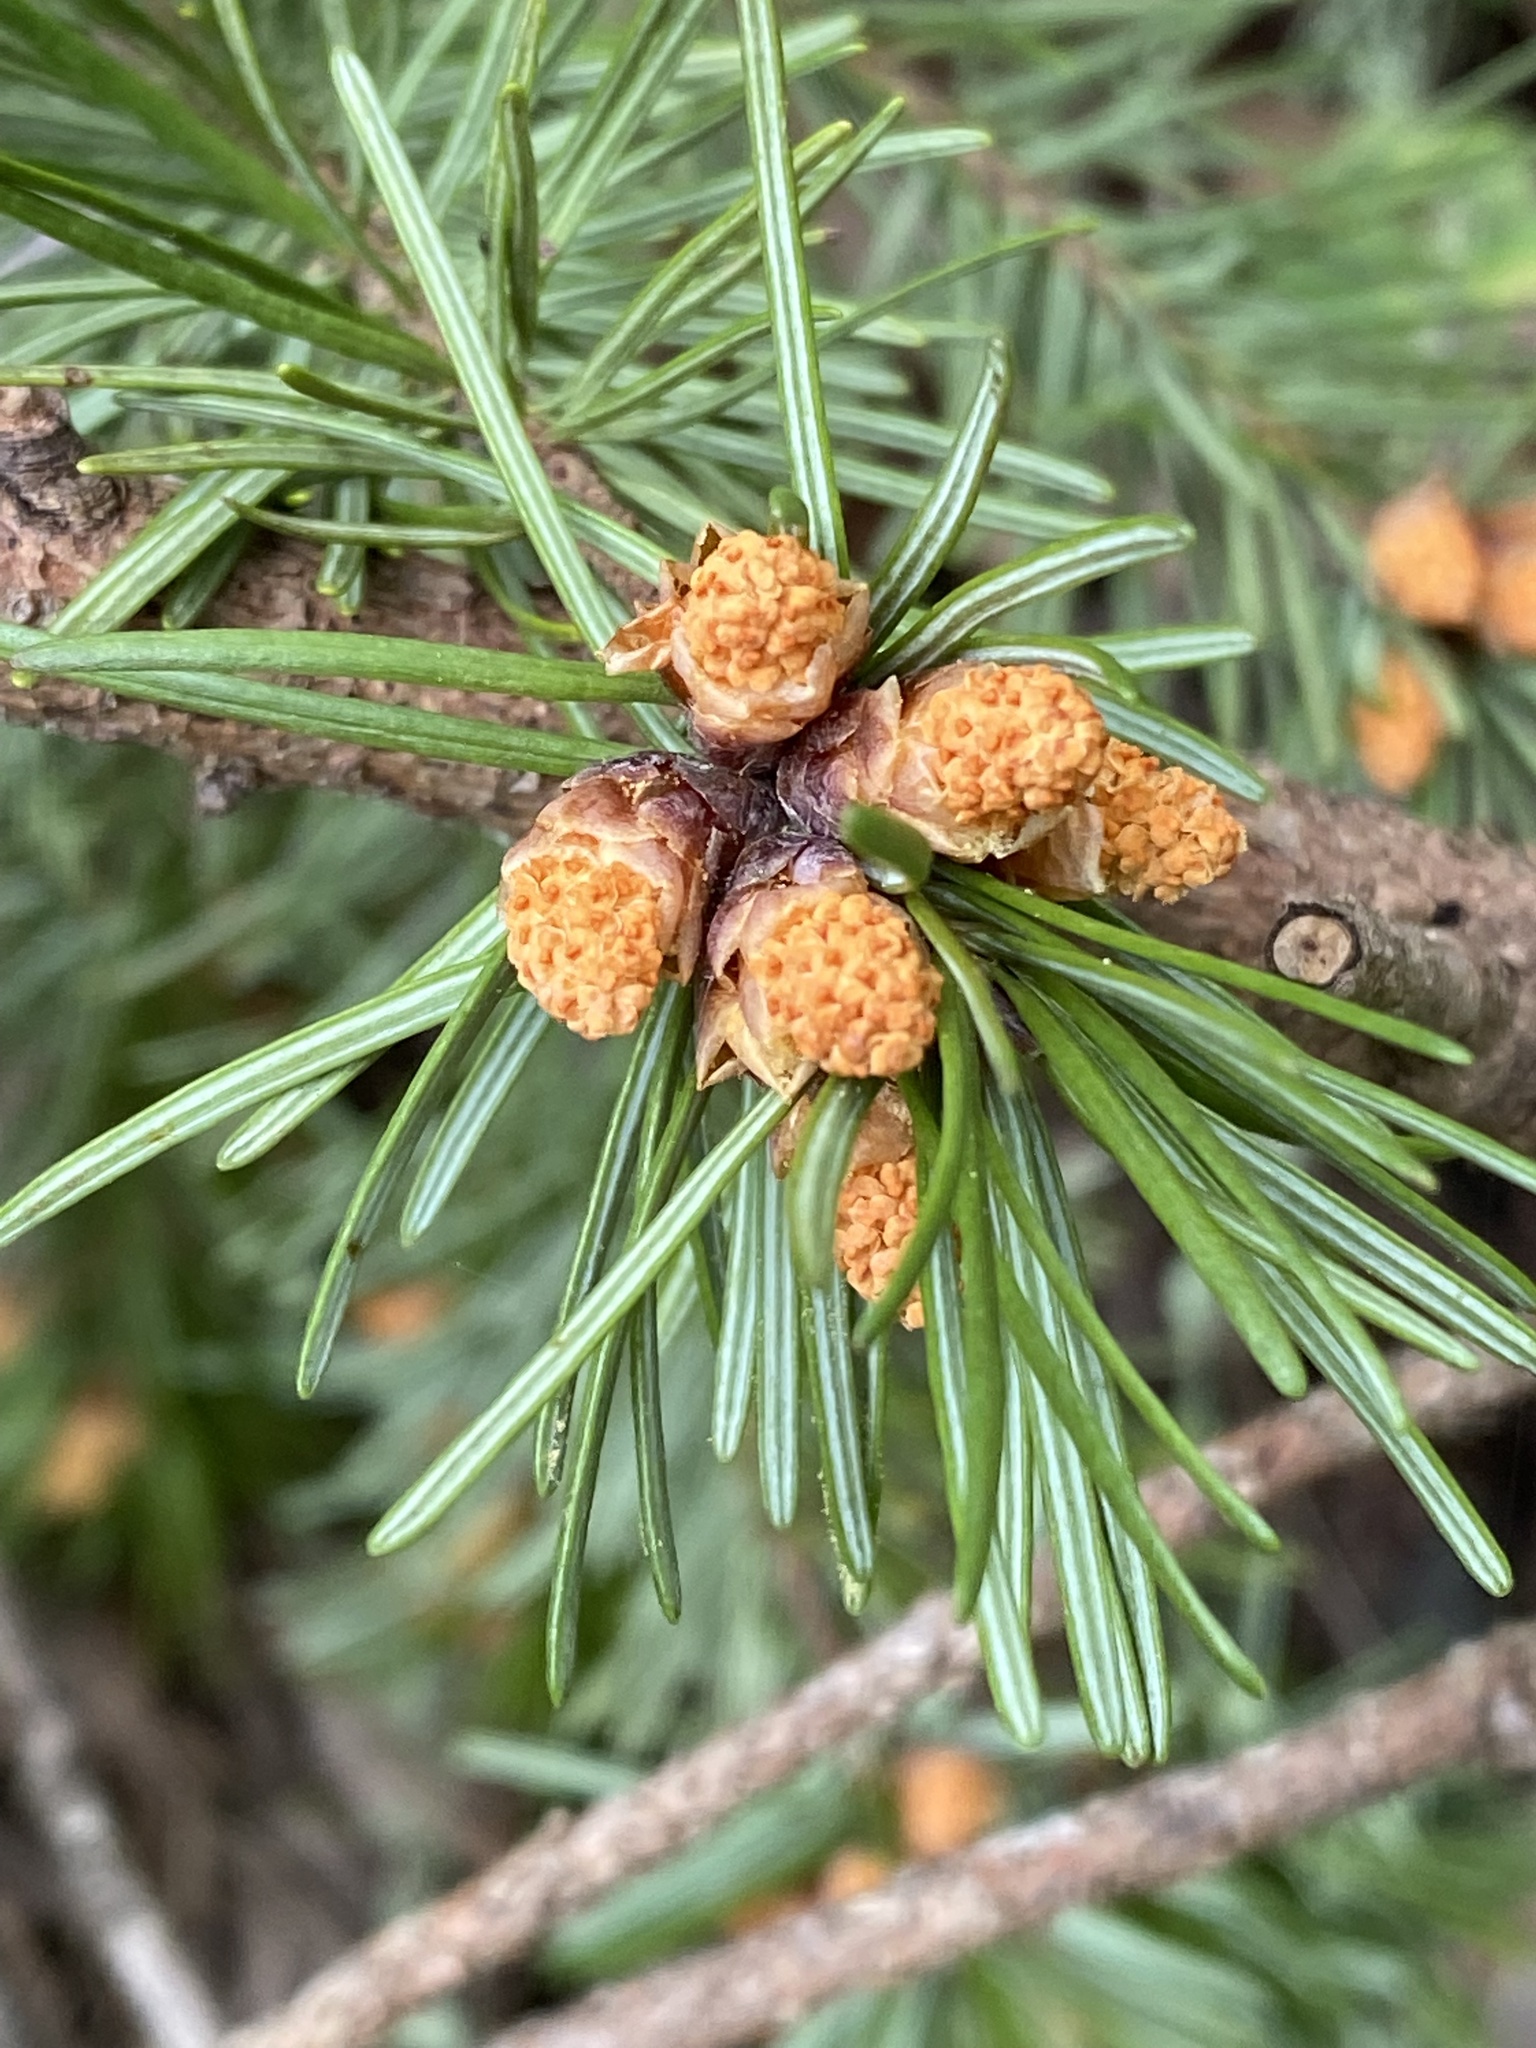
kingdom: Plantae
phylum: Tracheophyta
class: Pinopsida
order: Pinales
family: Pinaceae
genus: Pseudotsuga
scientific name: Pseudotsuga menziesii
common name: Douglas fir
